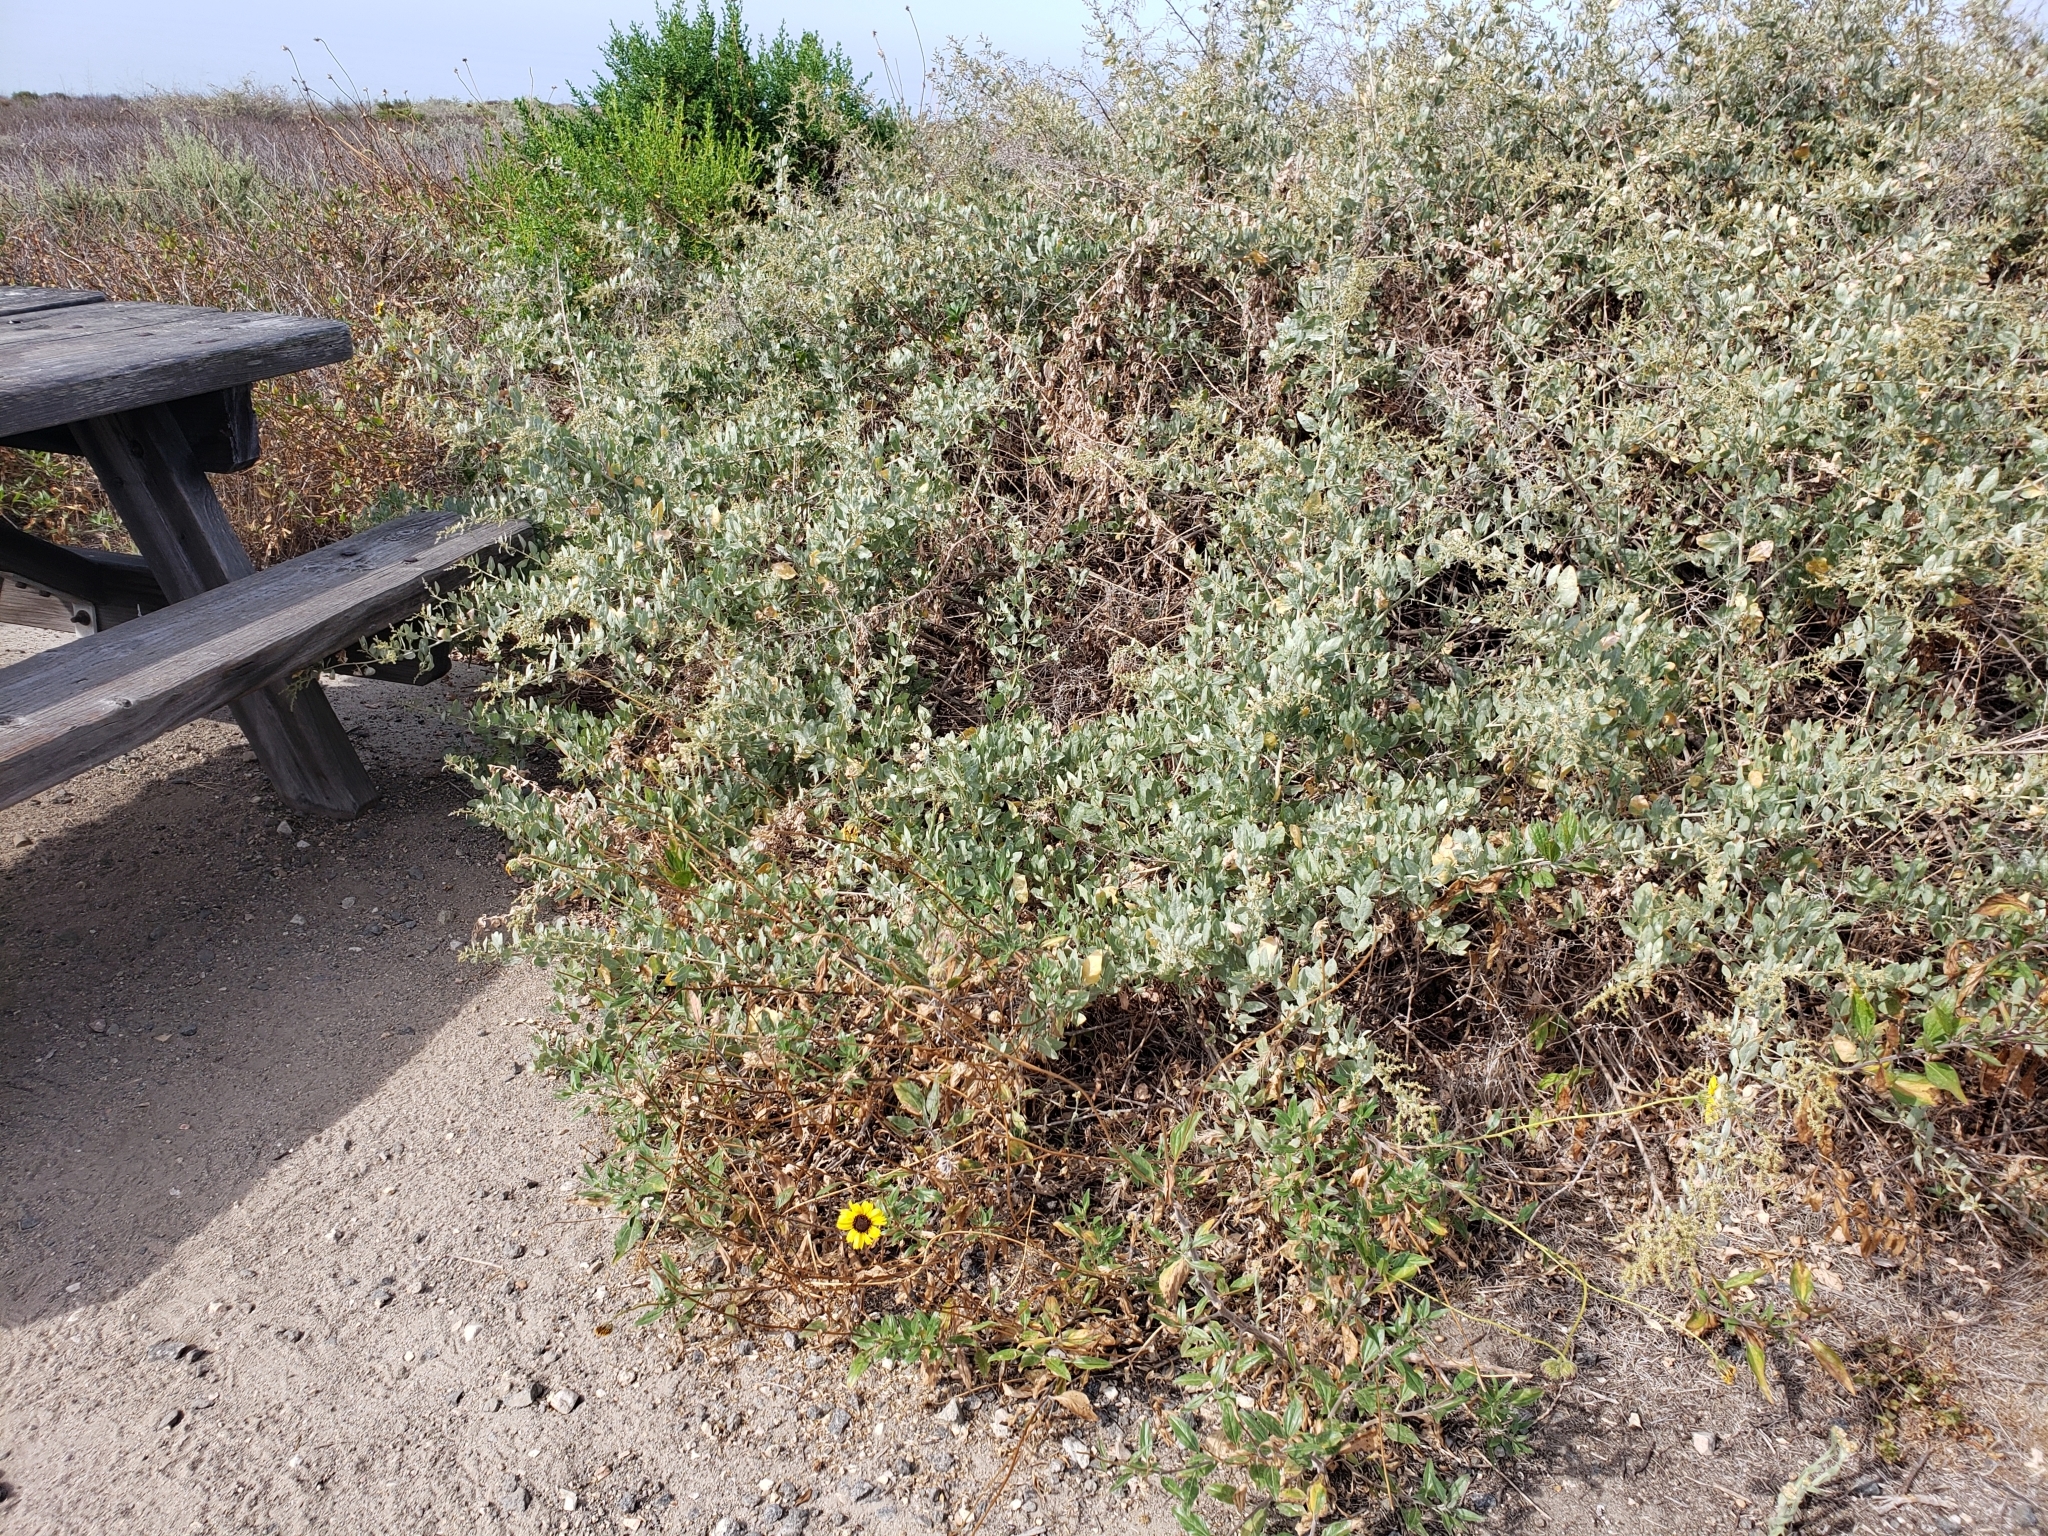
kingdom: Plantae
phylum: Tracheophyta
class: Magnoliopsida
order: Asterales
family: Asteraceae
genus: Encelia
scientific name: Encelia californica
